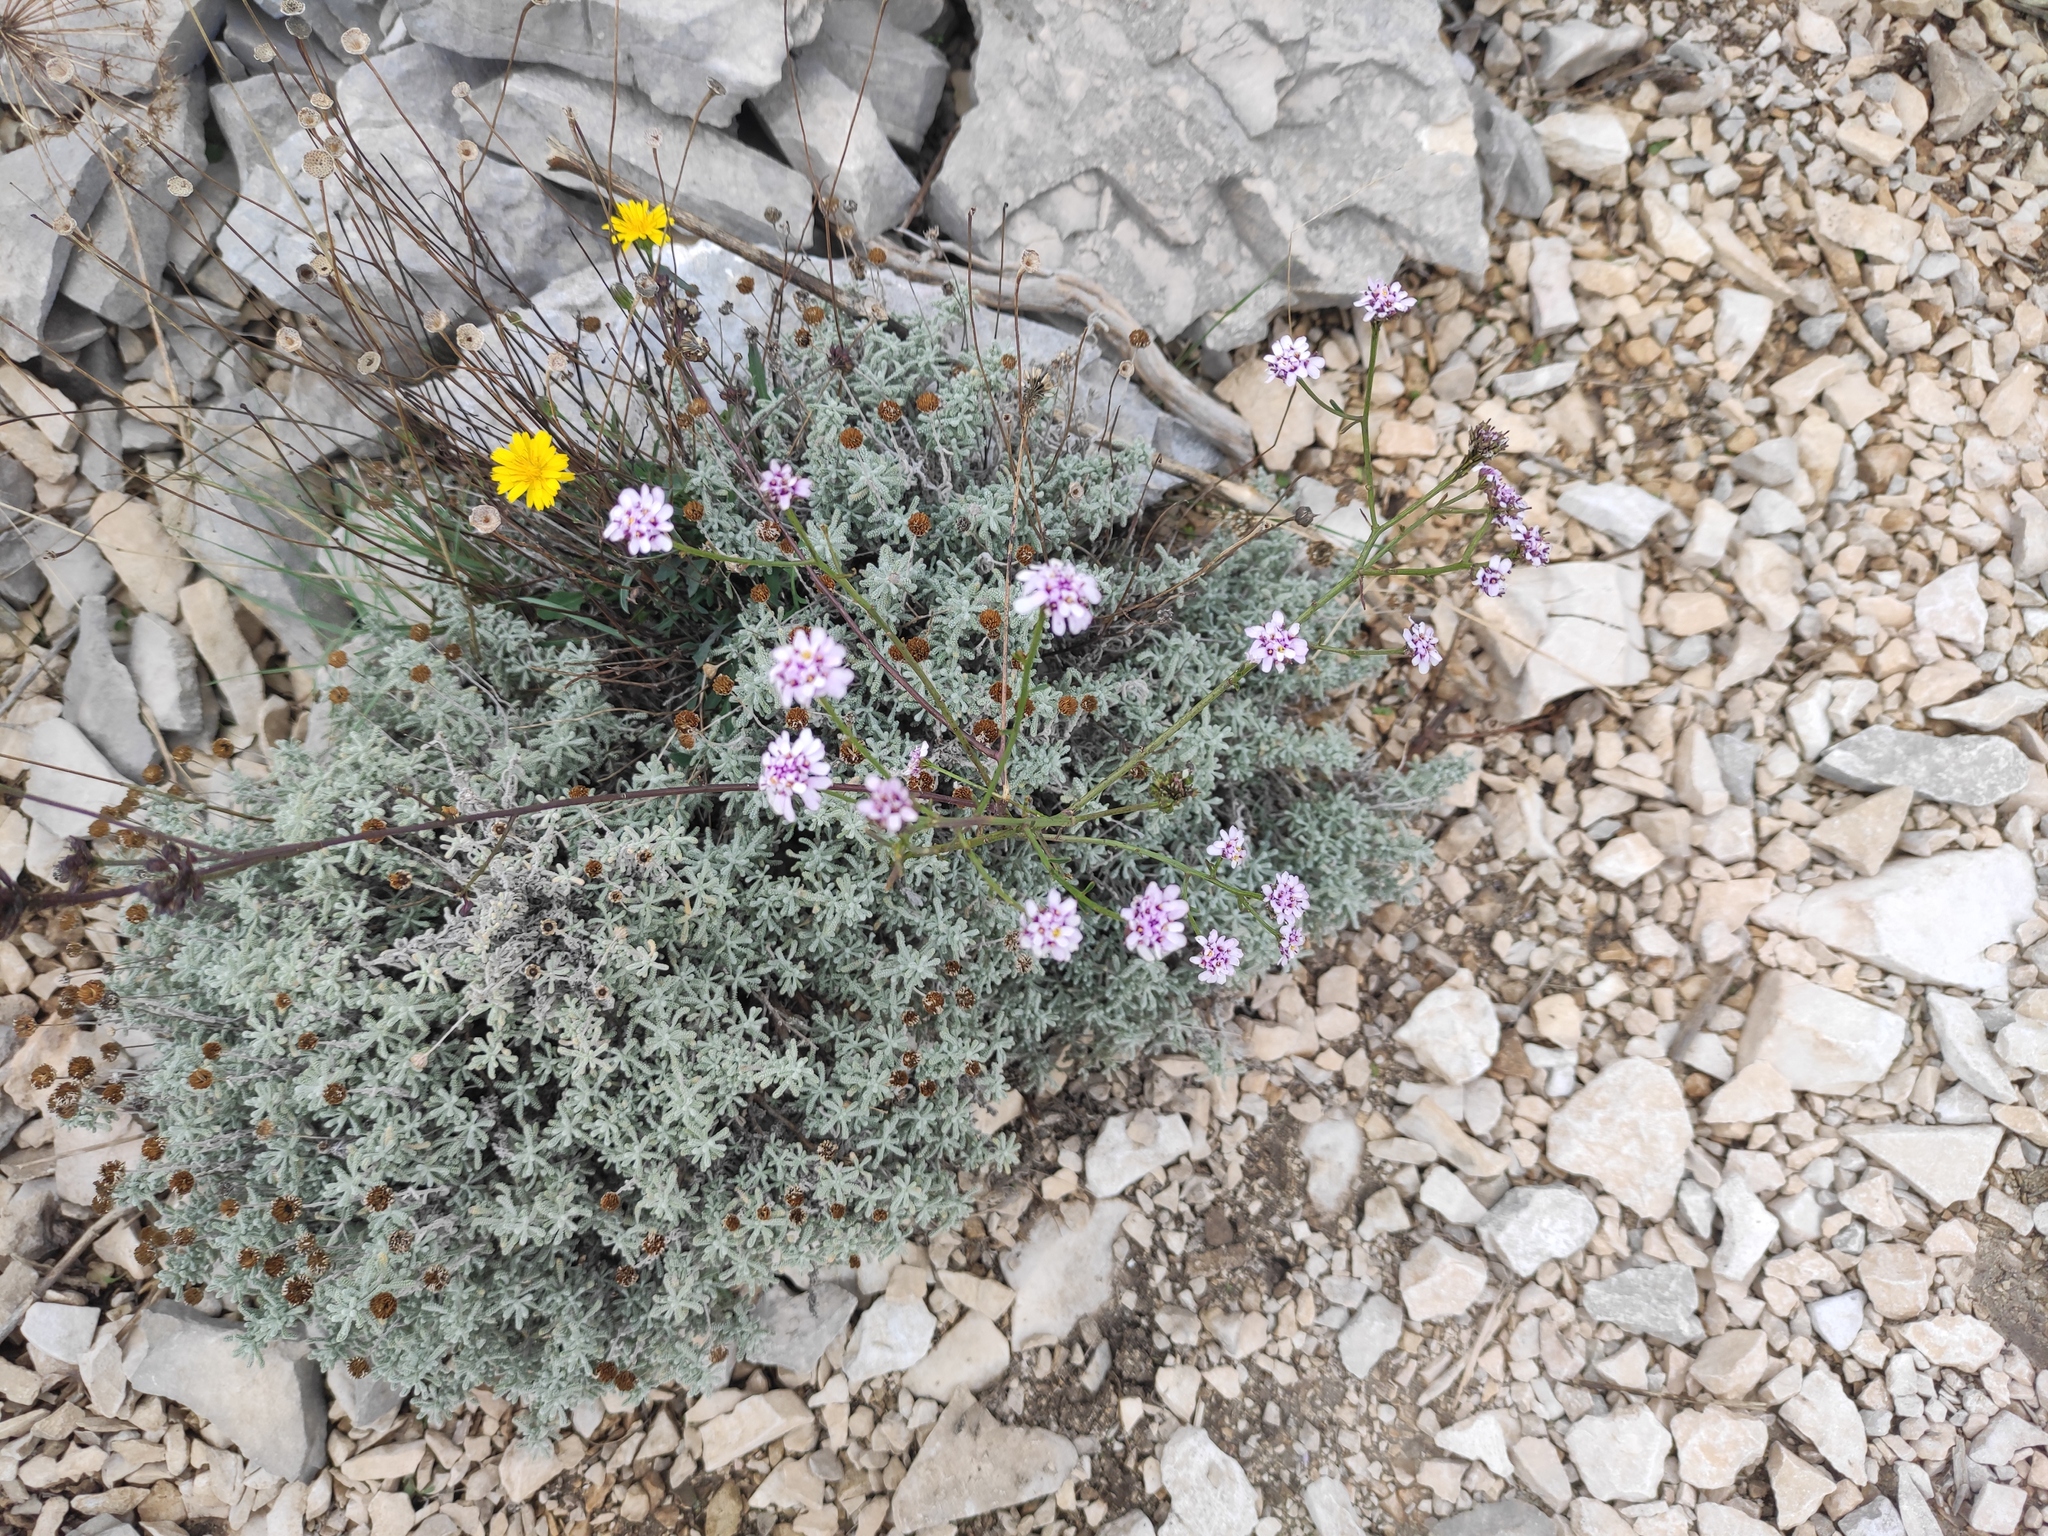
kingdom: Plantae
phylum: Tracheophyta
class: Magnoliopsida
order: Brassicales
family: Brassicaceae
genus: Iberis
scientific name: Iberis linifolia
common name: Candytuft
